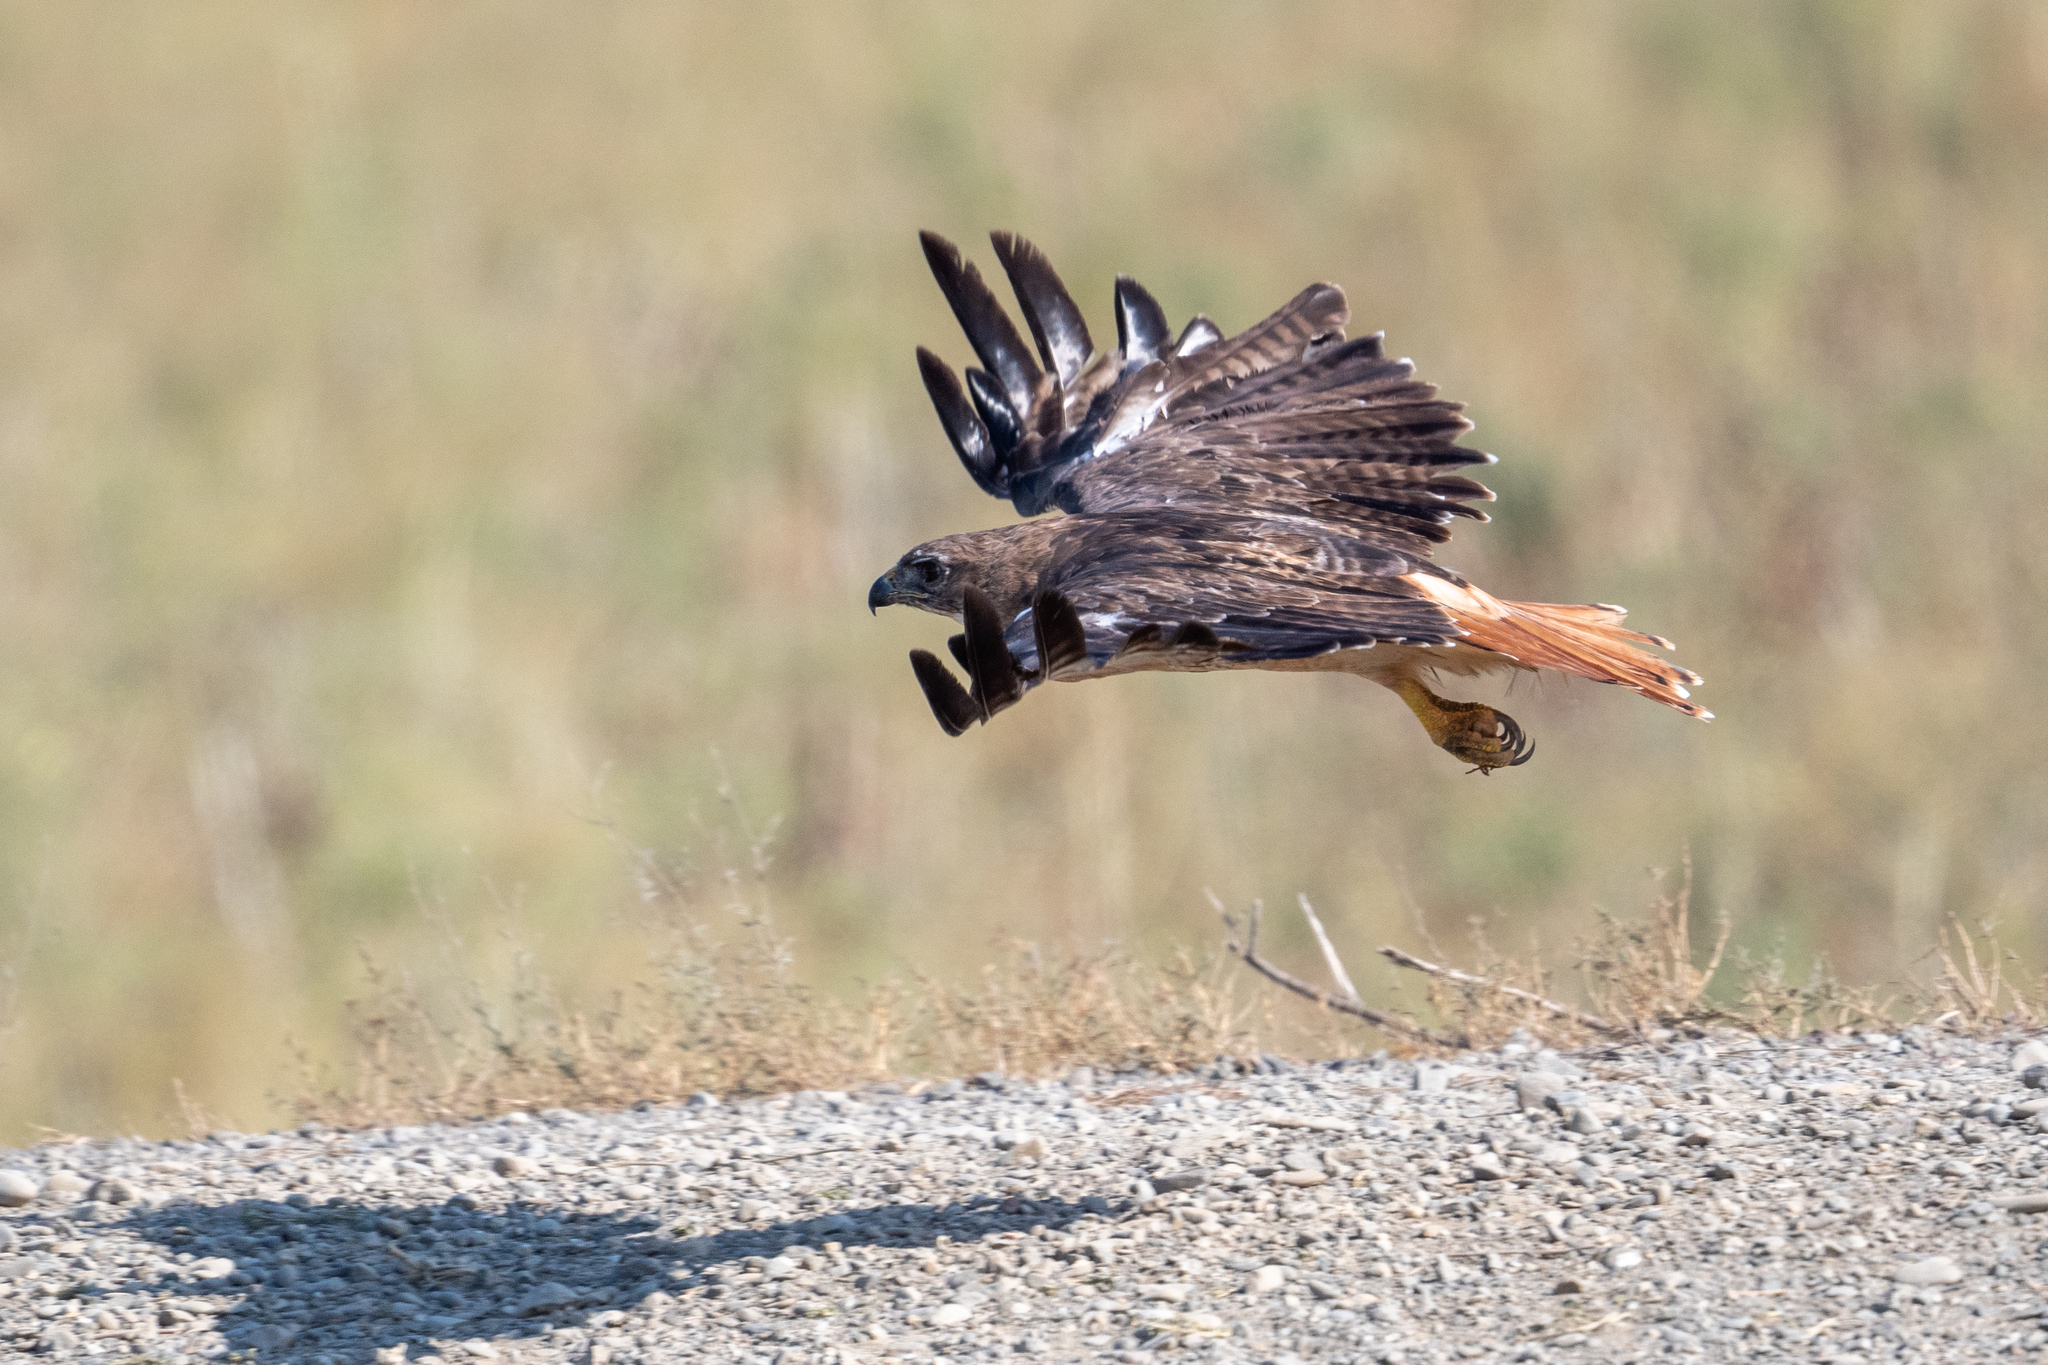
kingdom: Animalia
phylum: Chordata
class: Aves
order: Accipitriformes
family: Accipitridae
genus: Buteo
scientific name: Buteo jamaicensis
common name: Red-tailed hawk
